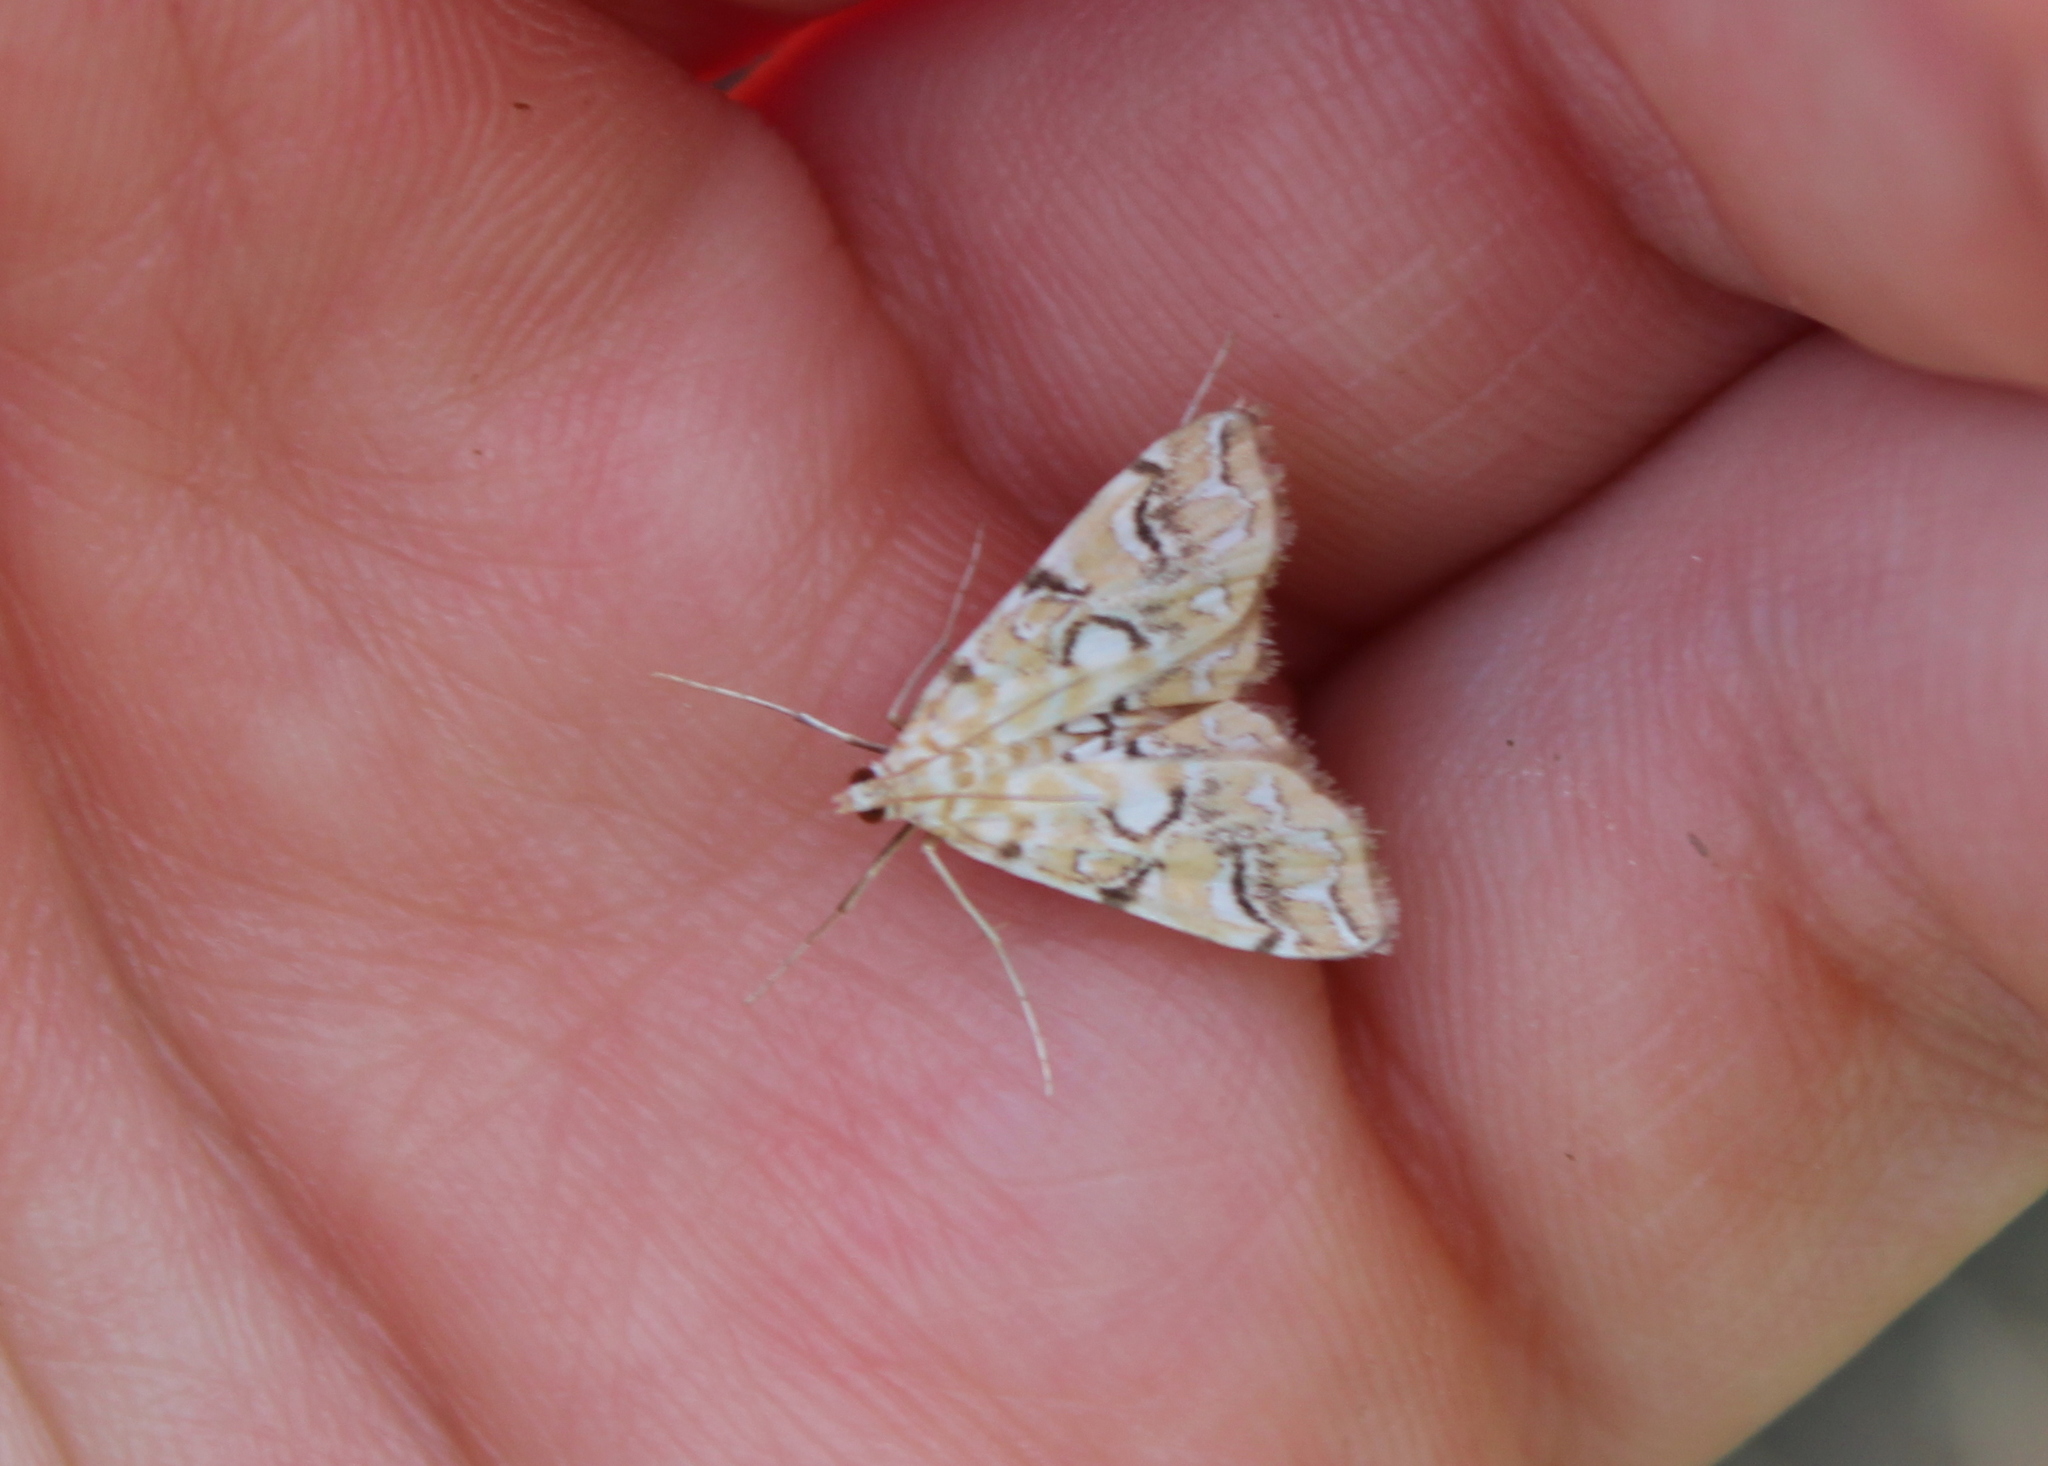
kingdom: Animalia
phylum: Arthropoda
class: Insecta
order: Lepidoptera
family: Crambidae
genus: Elophila
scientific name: Elophila icciusalis
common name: Pondside pyralid moth
